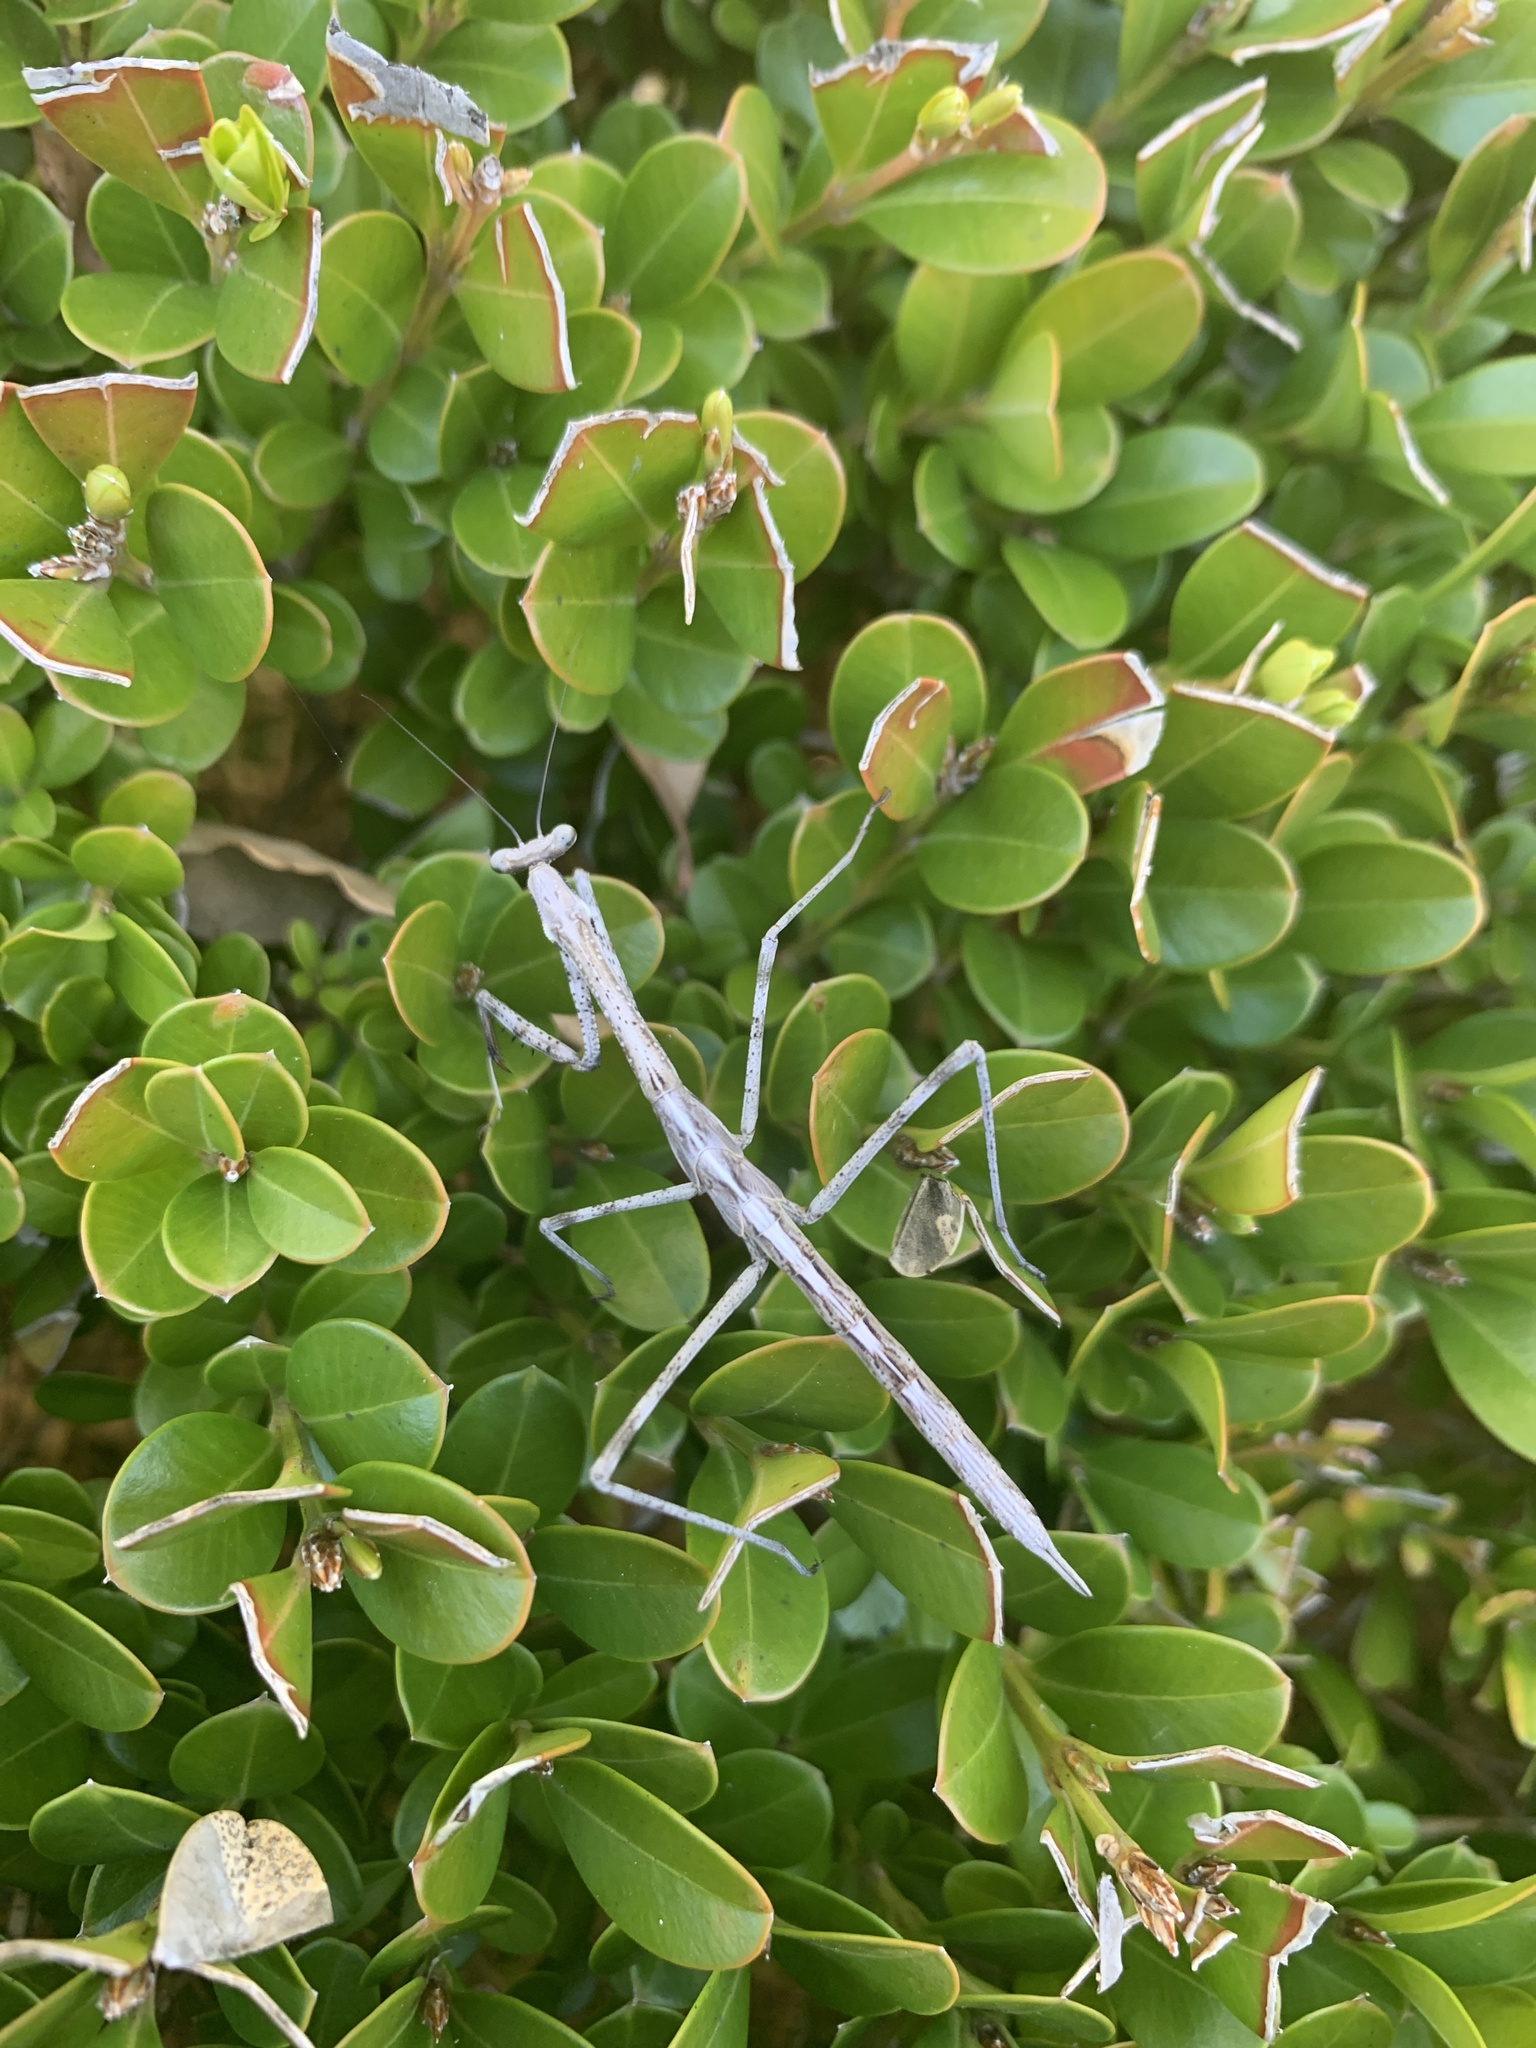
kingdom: Animalia
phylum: Arthropoda
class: Insecta
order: Mantodea
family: Mantidae
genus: Archimantis
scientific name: Archimantis latistyla
